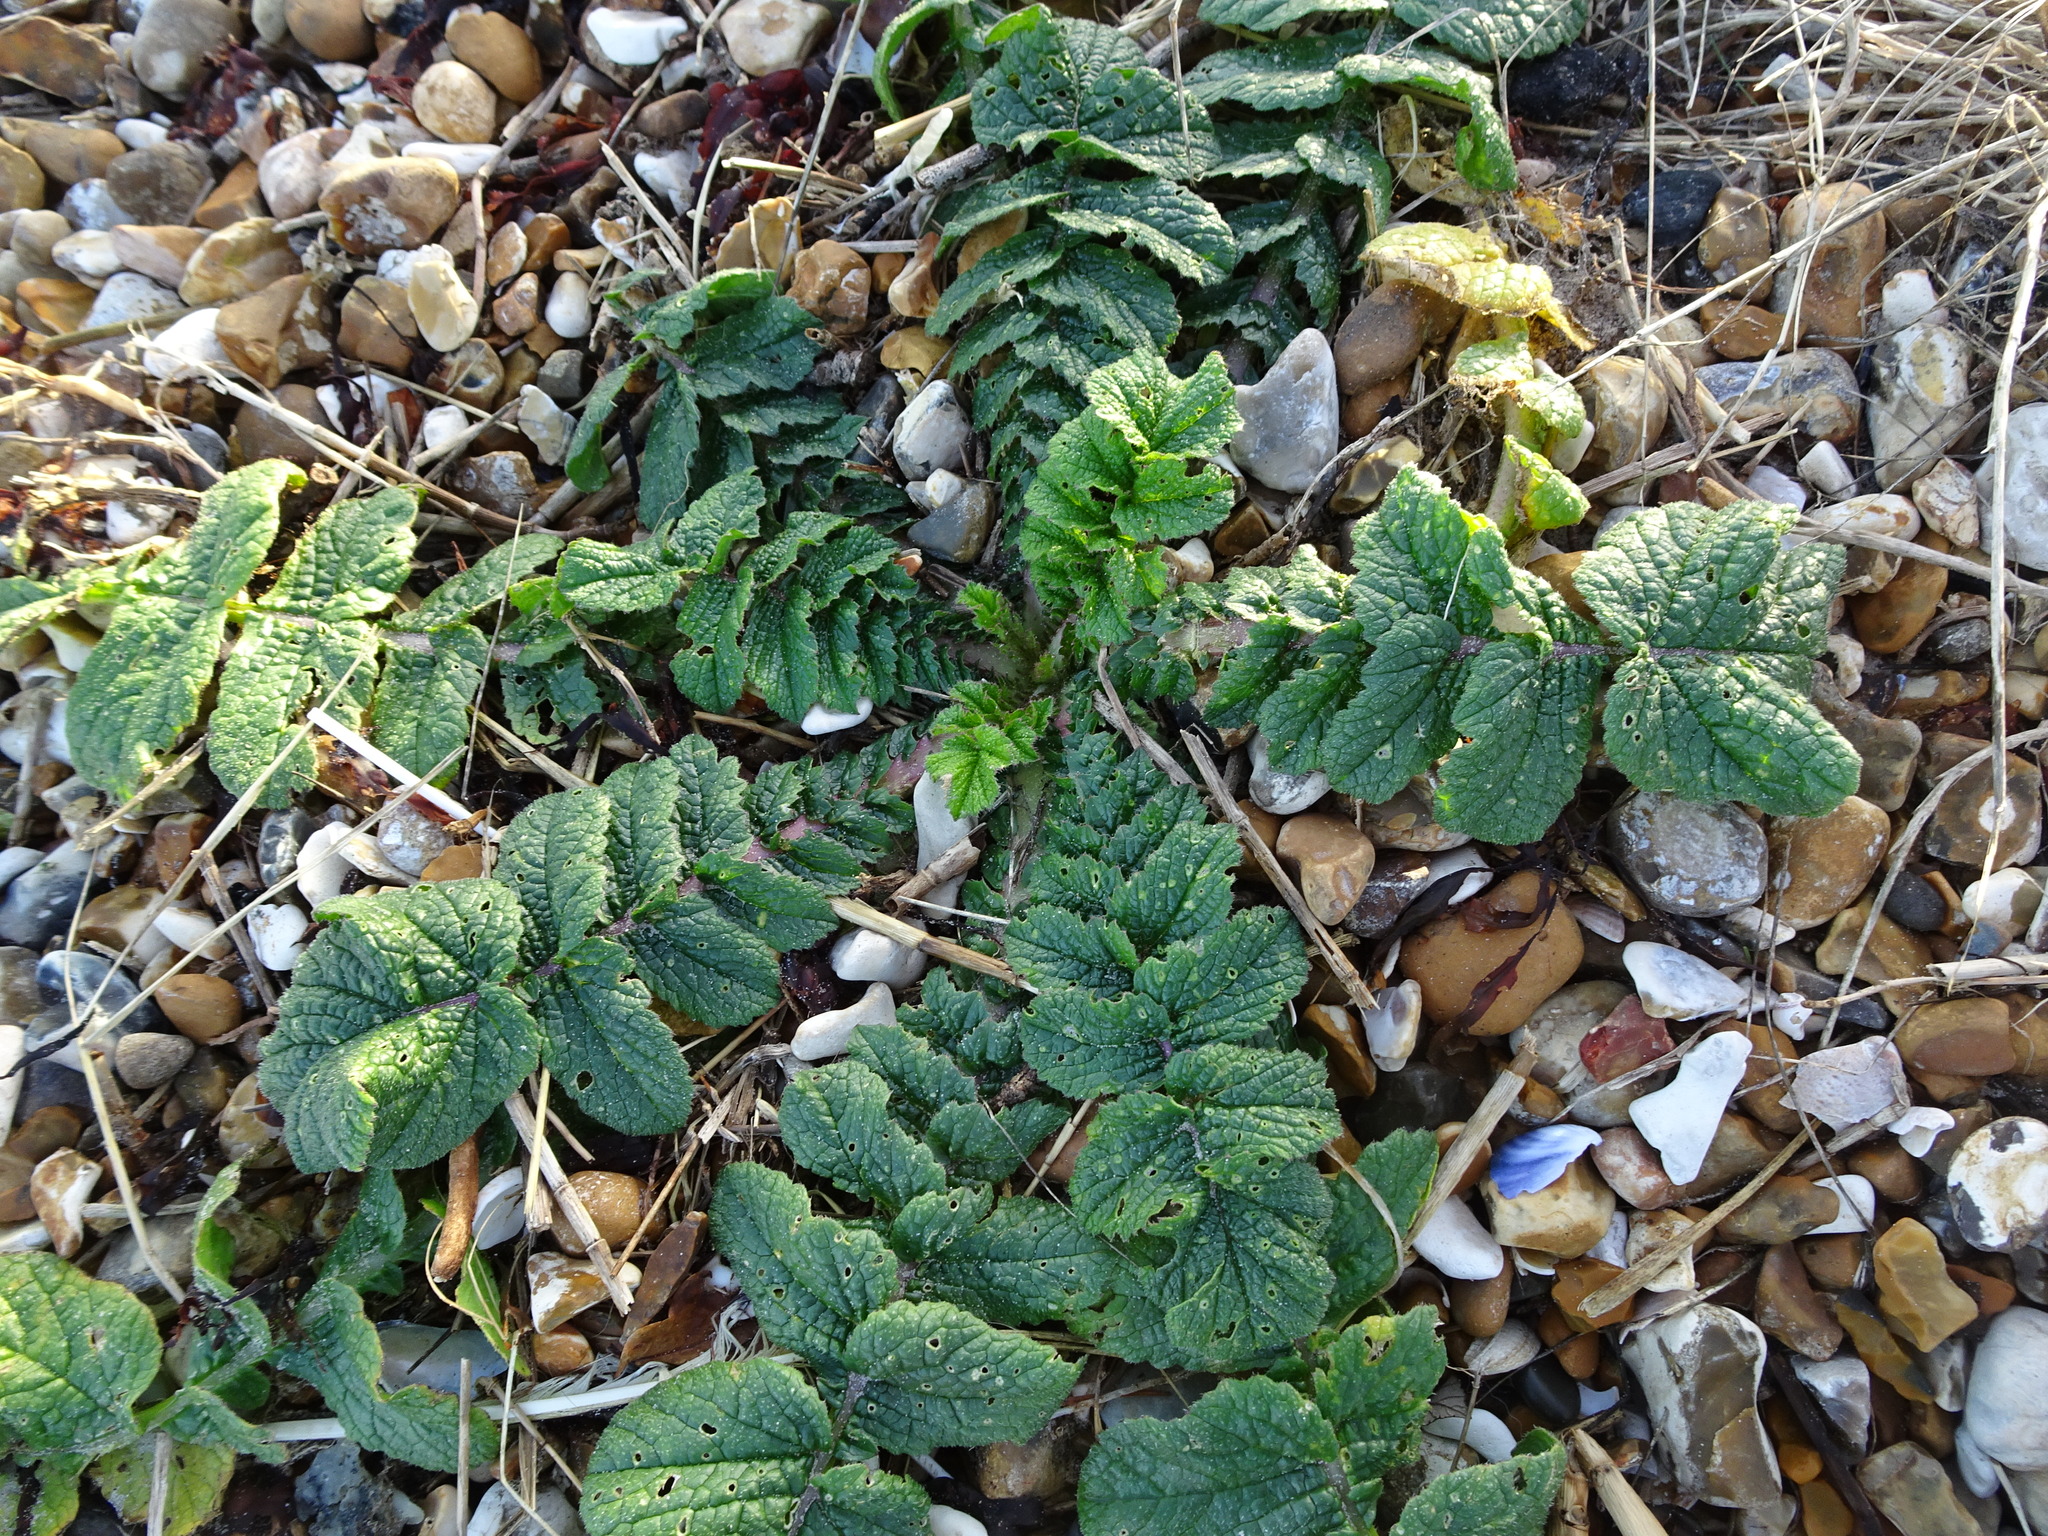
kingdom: Plantae
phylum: Tracheophyta
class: Magnoliopsida
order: Brassicales
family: Brassicaceae
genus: Raphanus
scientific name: Raphanus raphanistrum
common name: Wild radish
